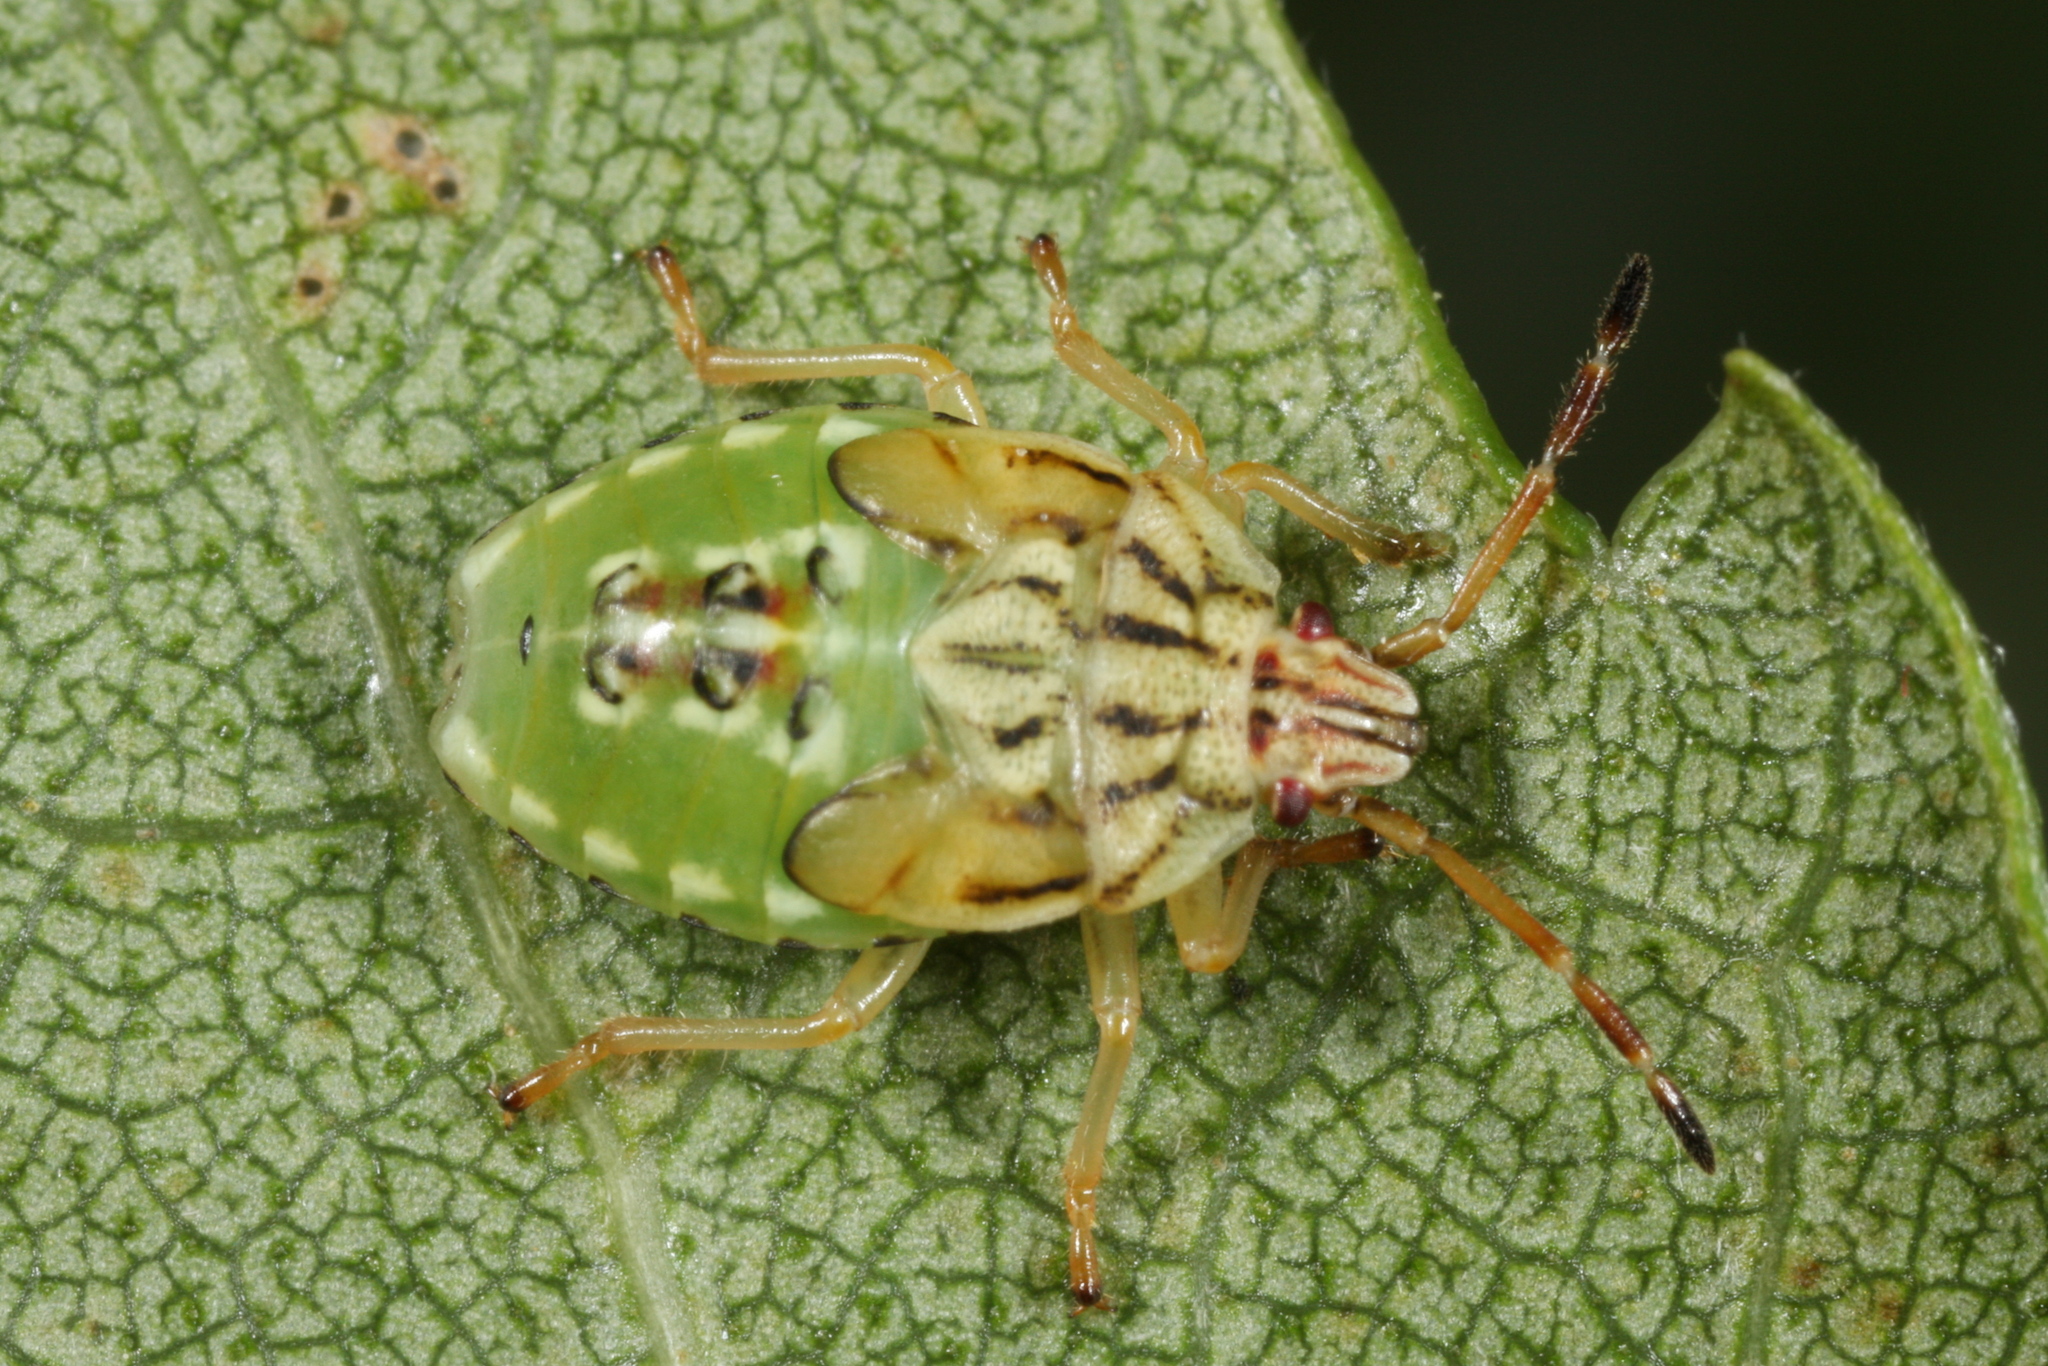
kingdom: Animalia
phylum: Arthropoda
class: Insecta
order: Hemiptera
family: Acanthosomatidae
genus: Elasmucha
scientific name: Elasmucha grisea
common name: Parent bug
